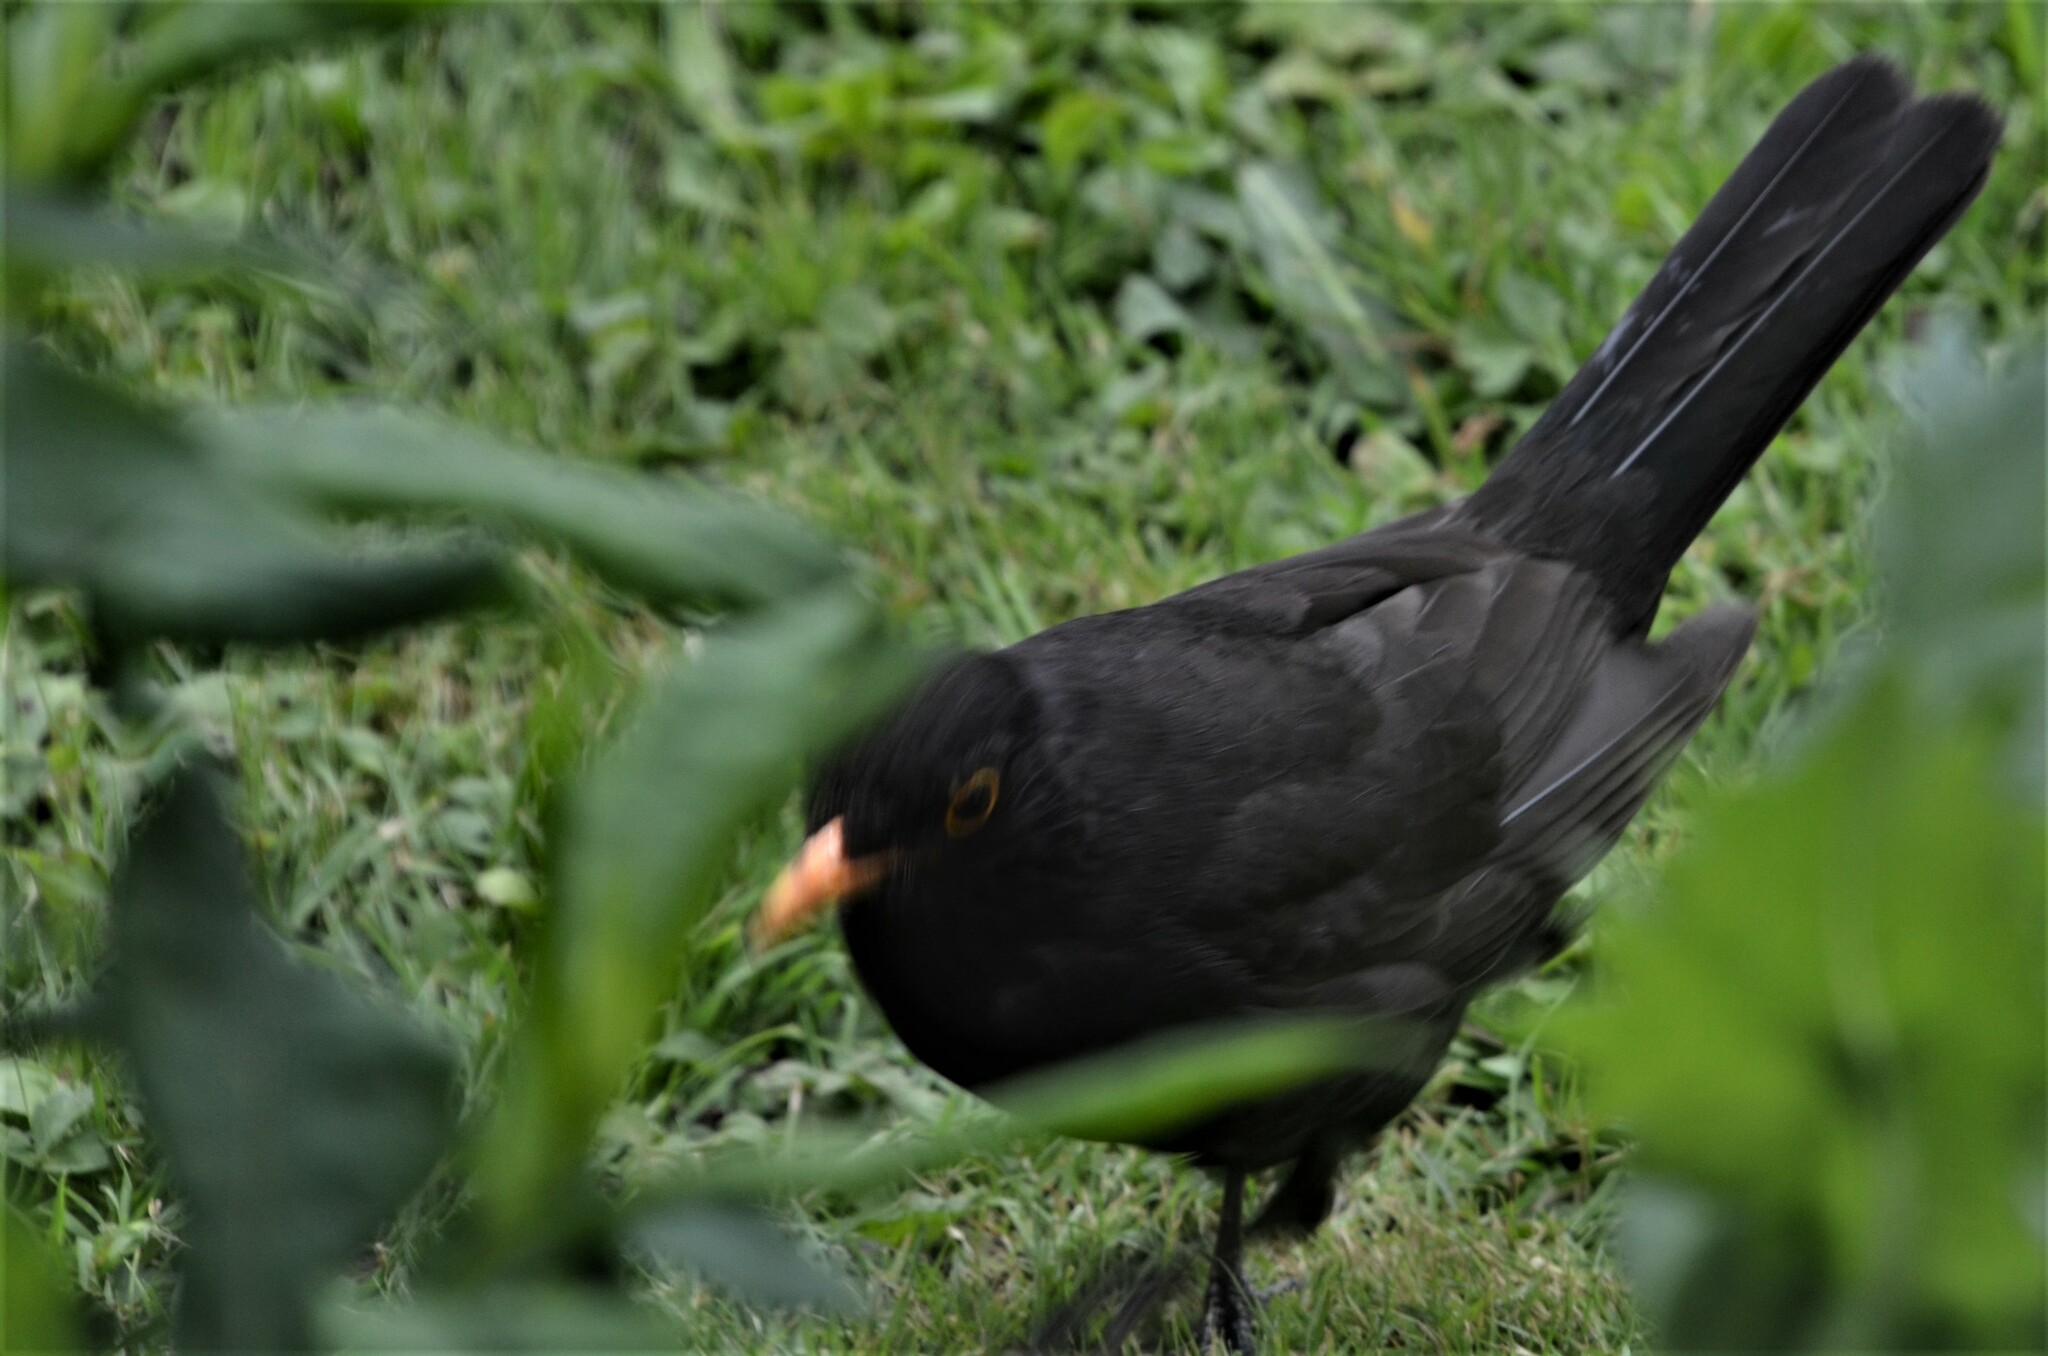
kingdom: Animalia
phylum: Chordata
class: Aves
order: Passeriformes
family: Turdidae
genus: Turdus
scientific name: Turdus merula
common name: Common blackbird
